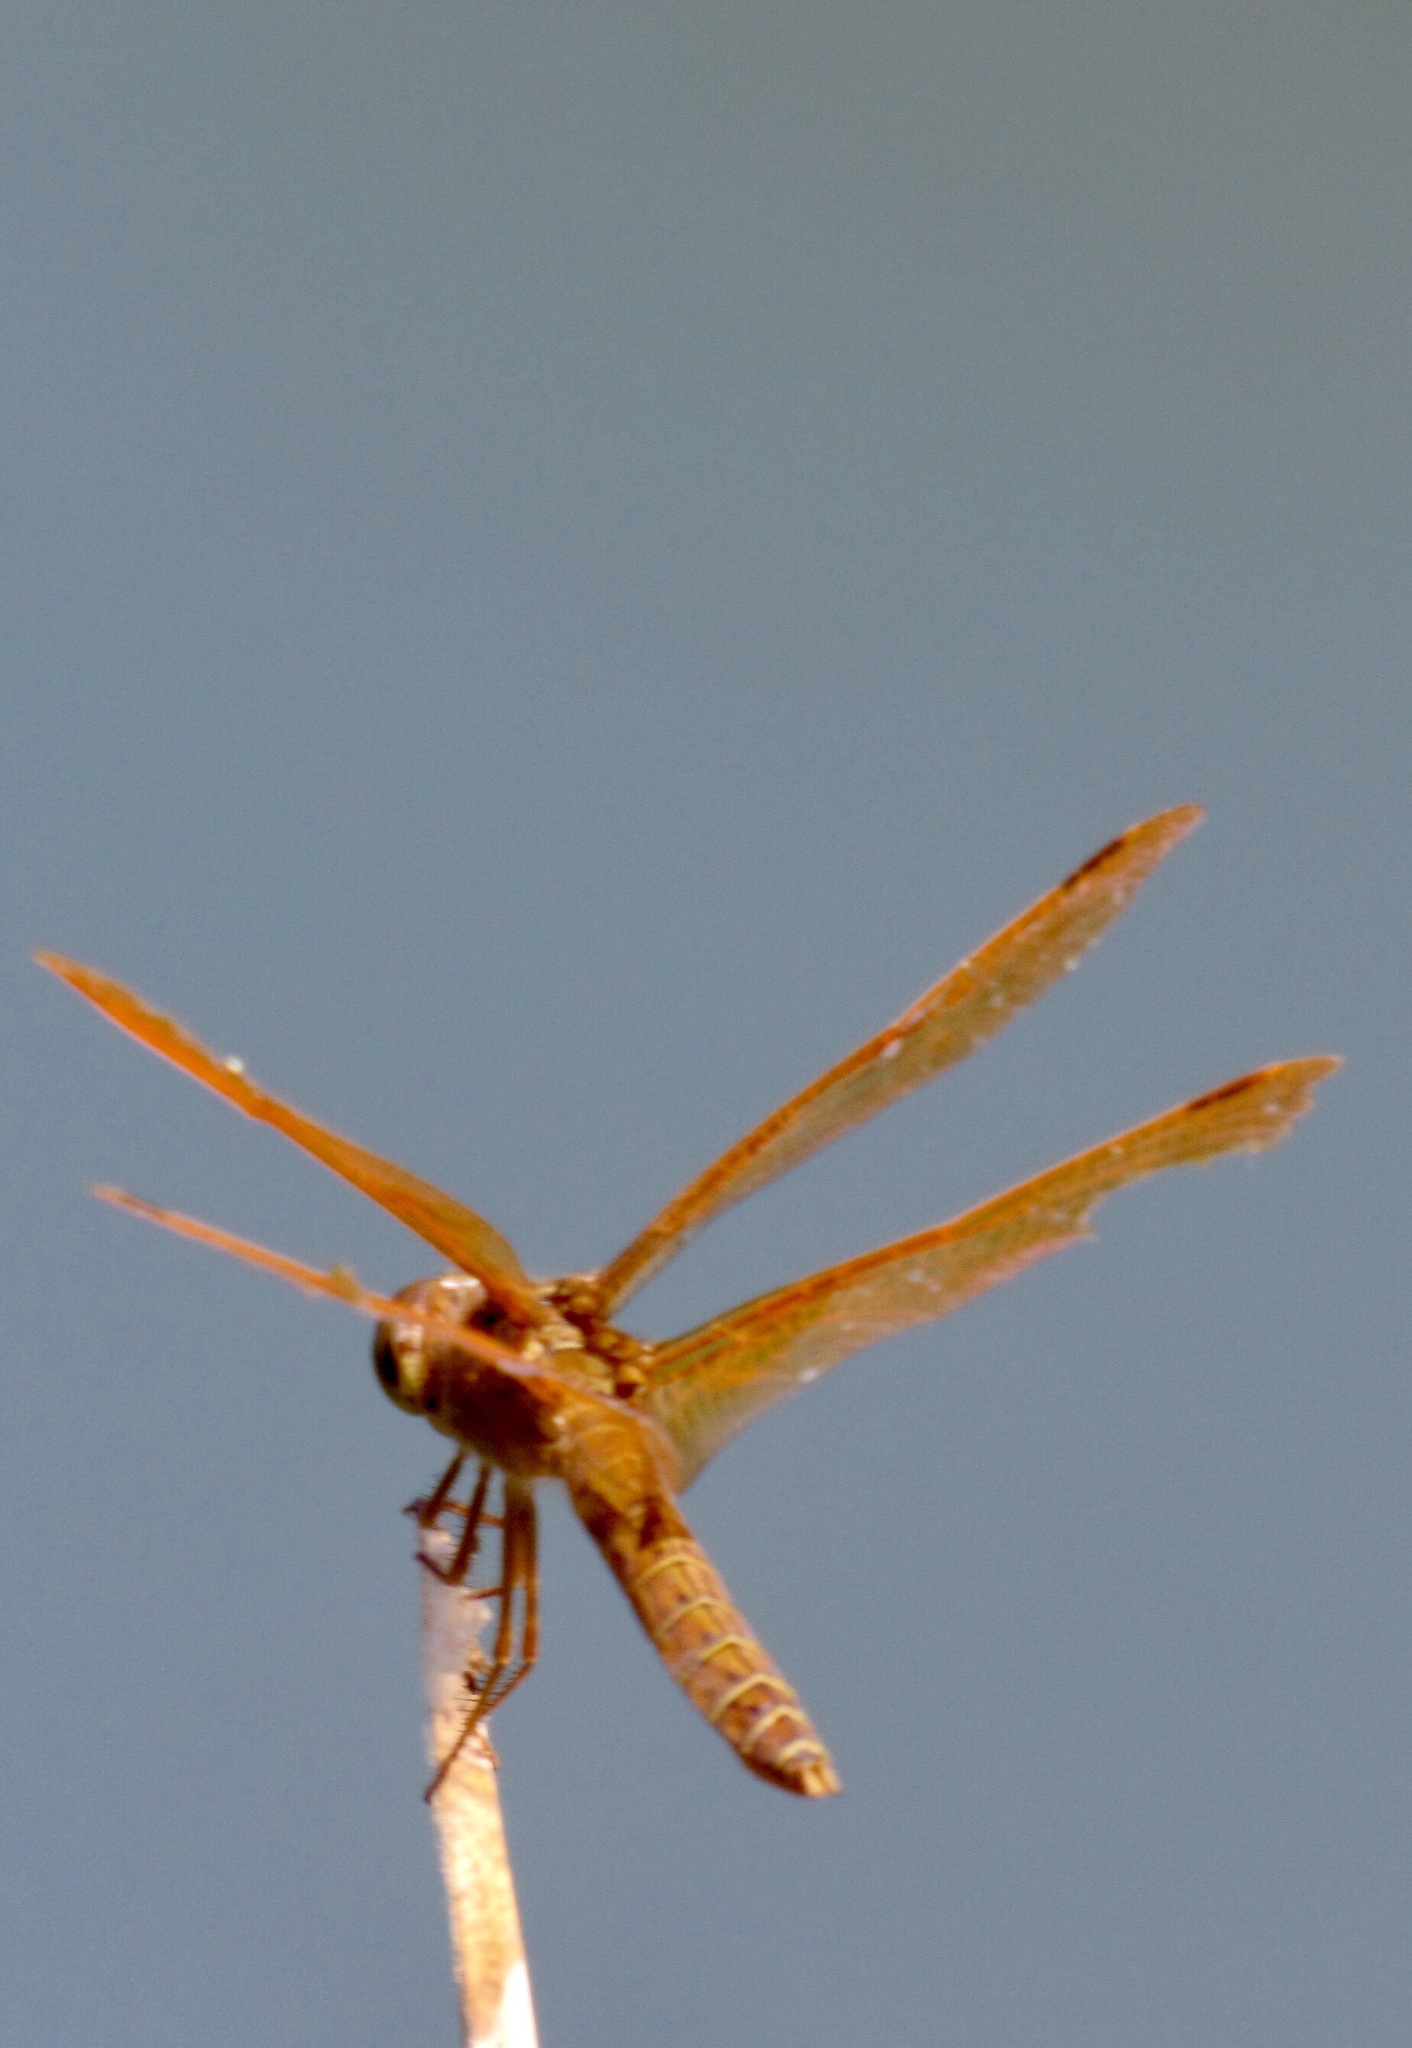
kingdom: Animalia
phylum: Arthropoda
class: Insecta
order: Odonata
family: Libellulidae
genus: Perithemis
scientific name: Perithemis intensa
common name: Mexican amberwing
